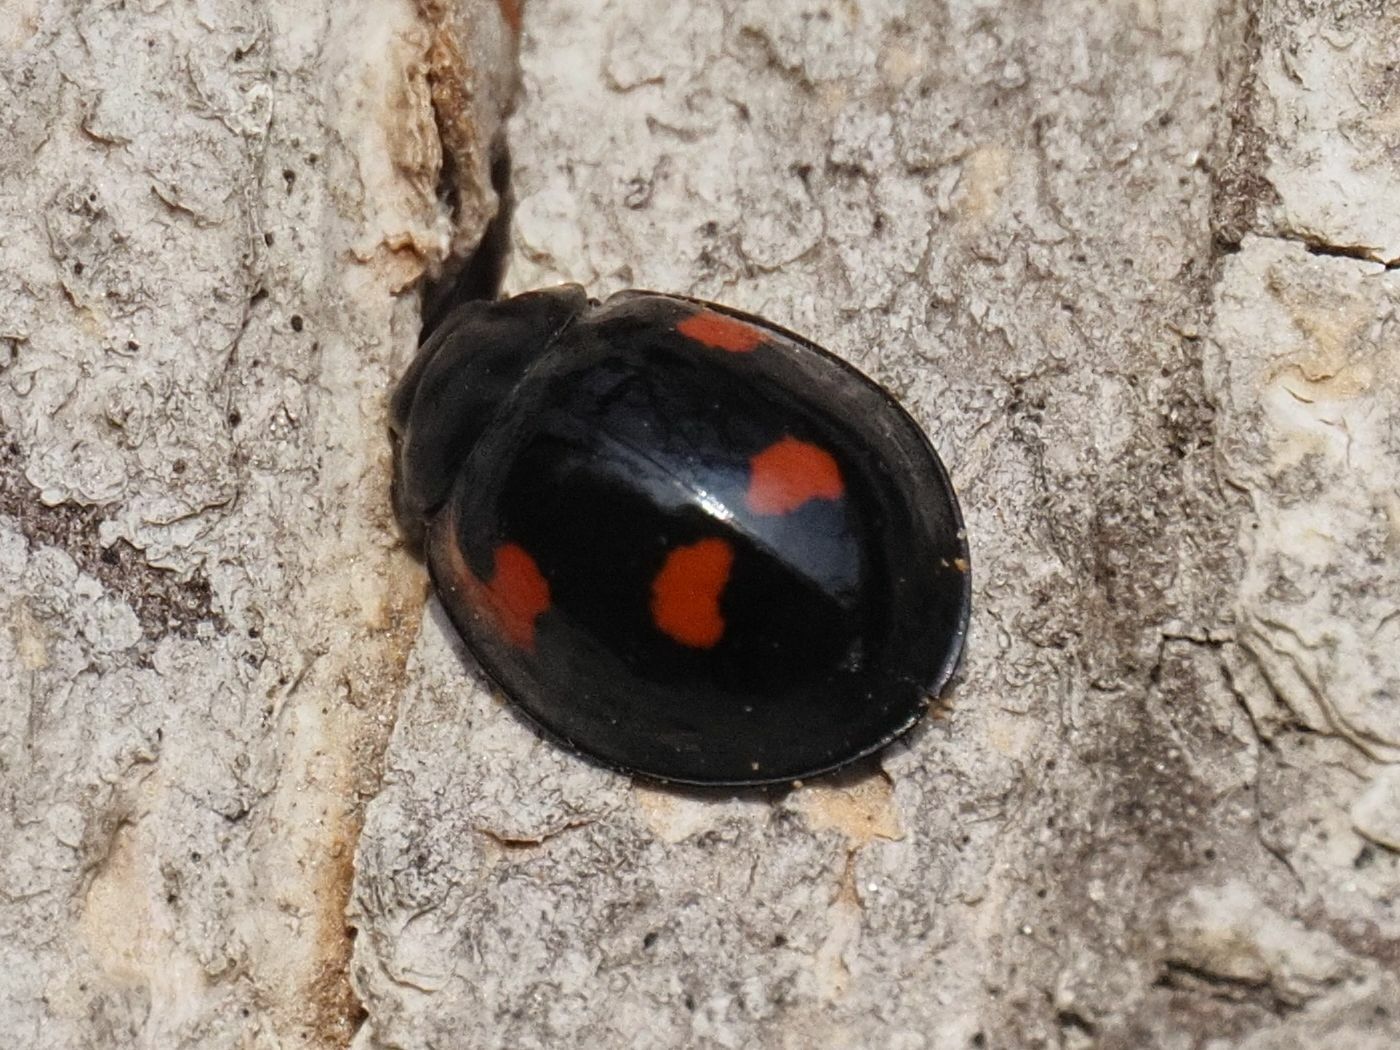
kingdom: Animalia
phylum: Arthropoda
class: Insecta
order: Coleoptera
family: Coccinellidae
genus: Brumus
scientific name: Brumus quadripustulatus
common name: Ladybird beetle
